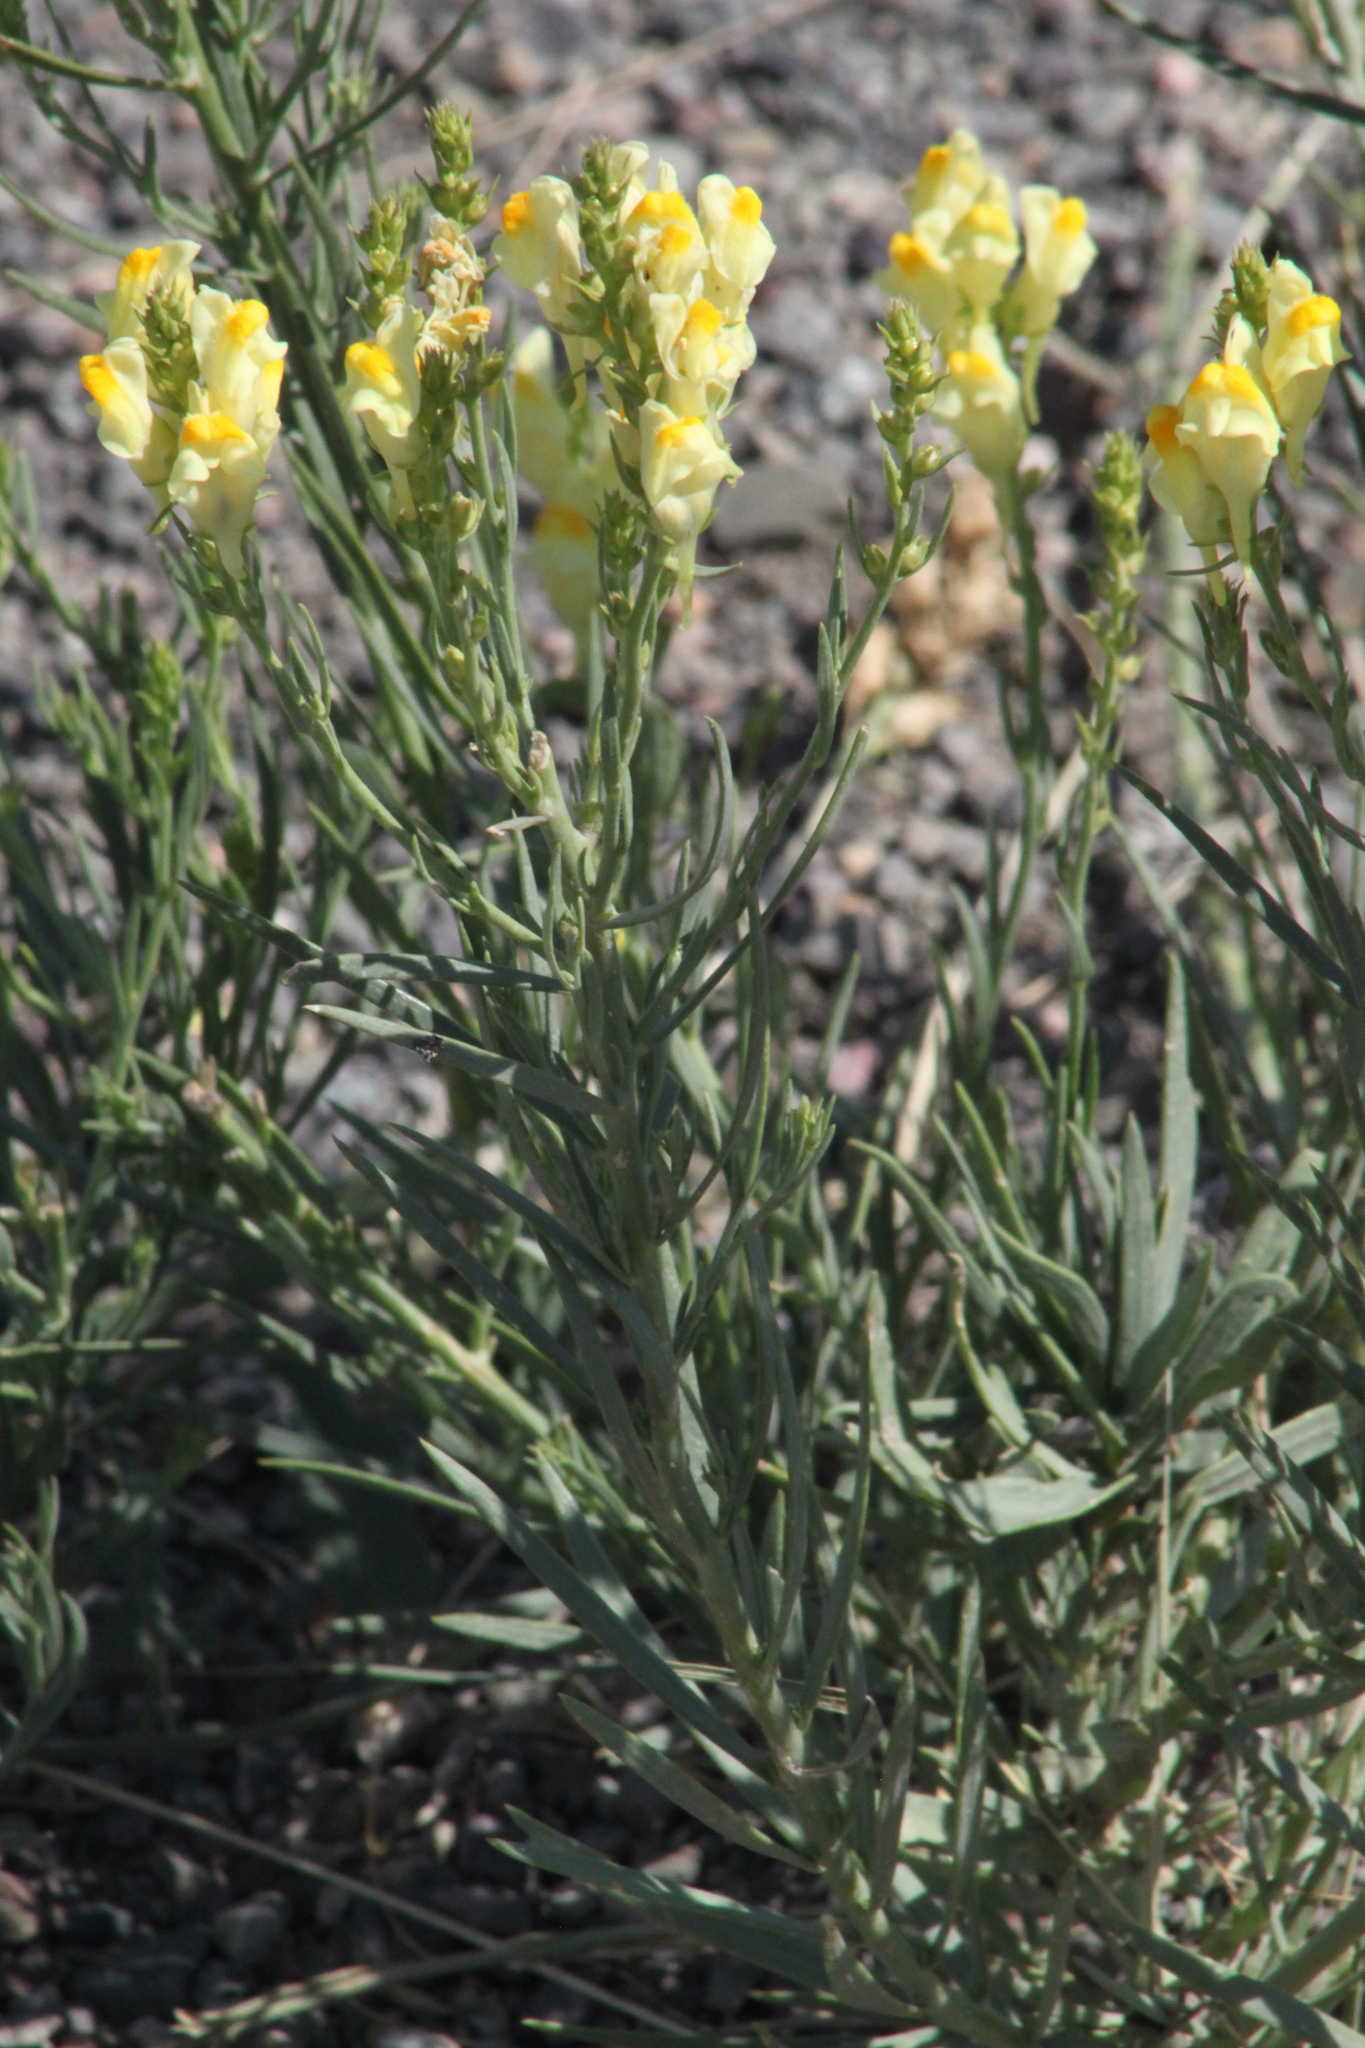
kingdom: Plantae
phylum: Tracheophyta
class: Magnoliopsida
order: Lamiales
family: Plantaginaceae
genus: Linaria
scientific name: Linaria vulgaris
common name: Butter and eggs
